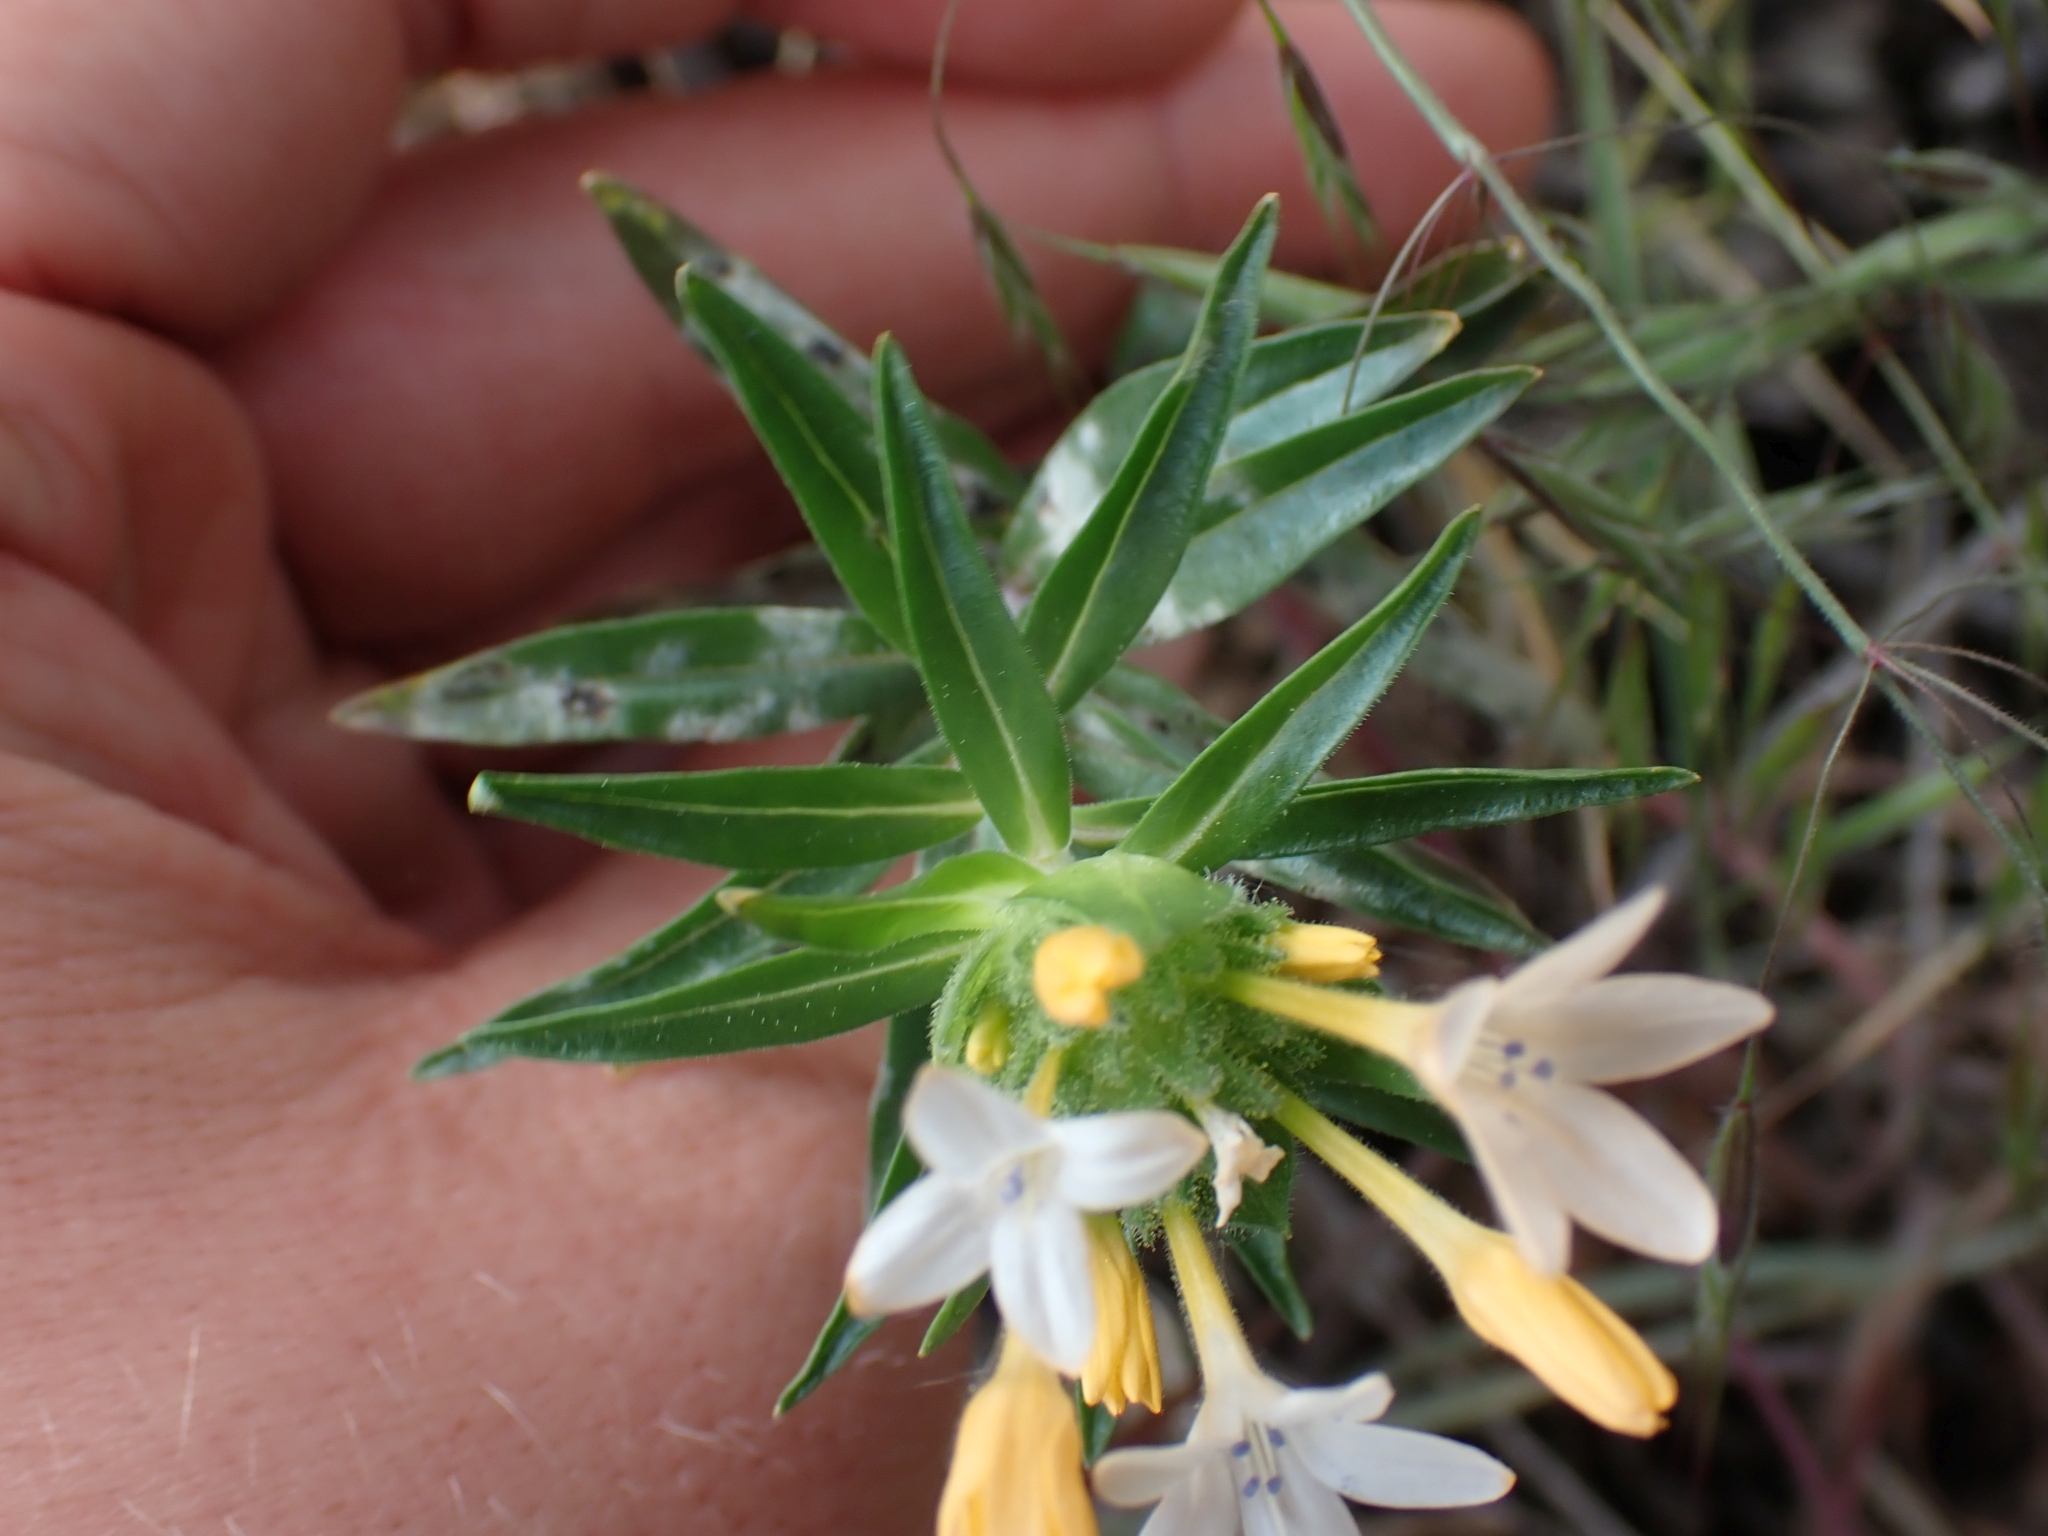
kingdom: Plantae
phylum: Tracheophyta
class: Magnoliopsida
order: Ericales
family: Polemoniaceae
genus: Collomia
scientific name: Collomia grandiflora
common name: California strawflower
